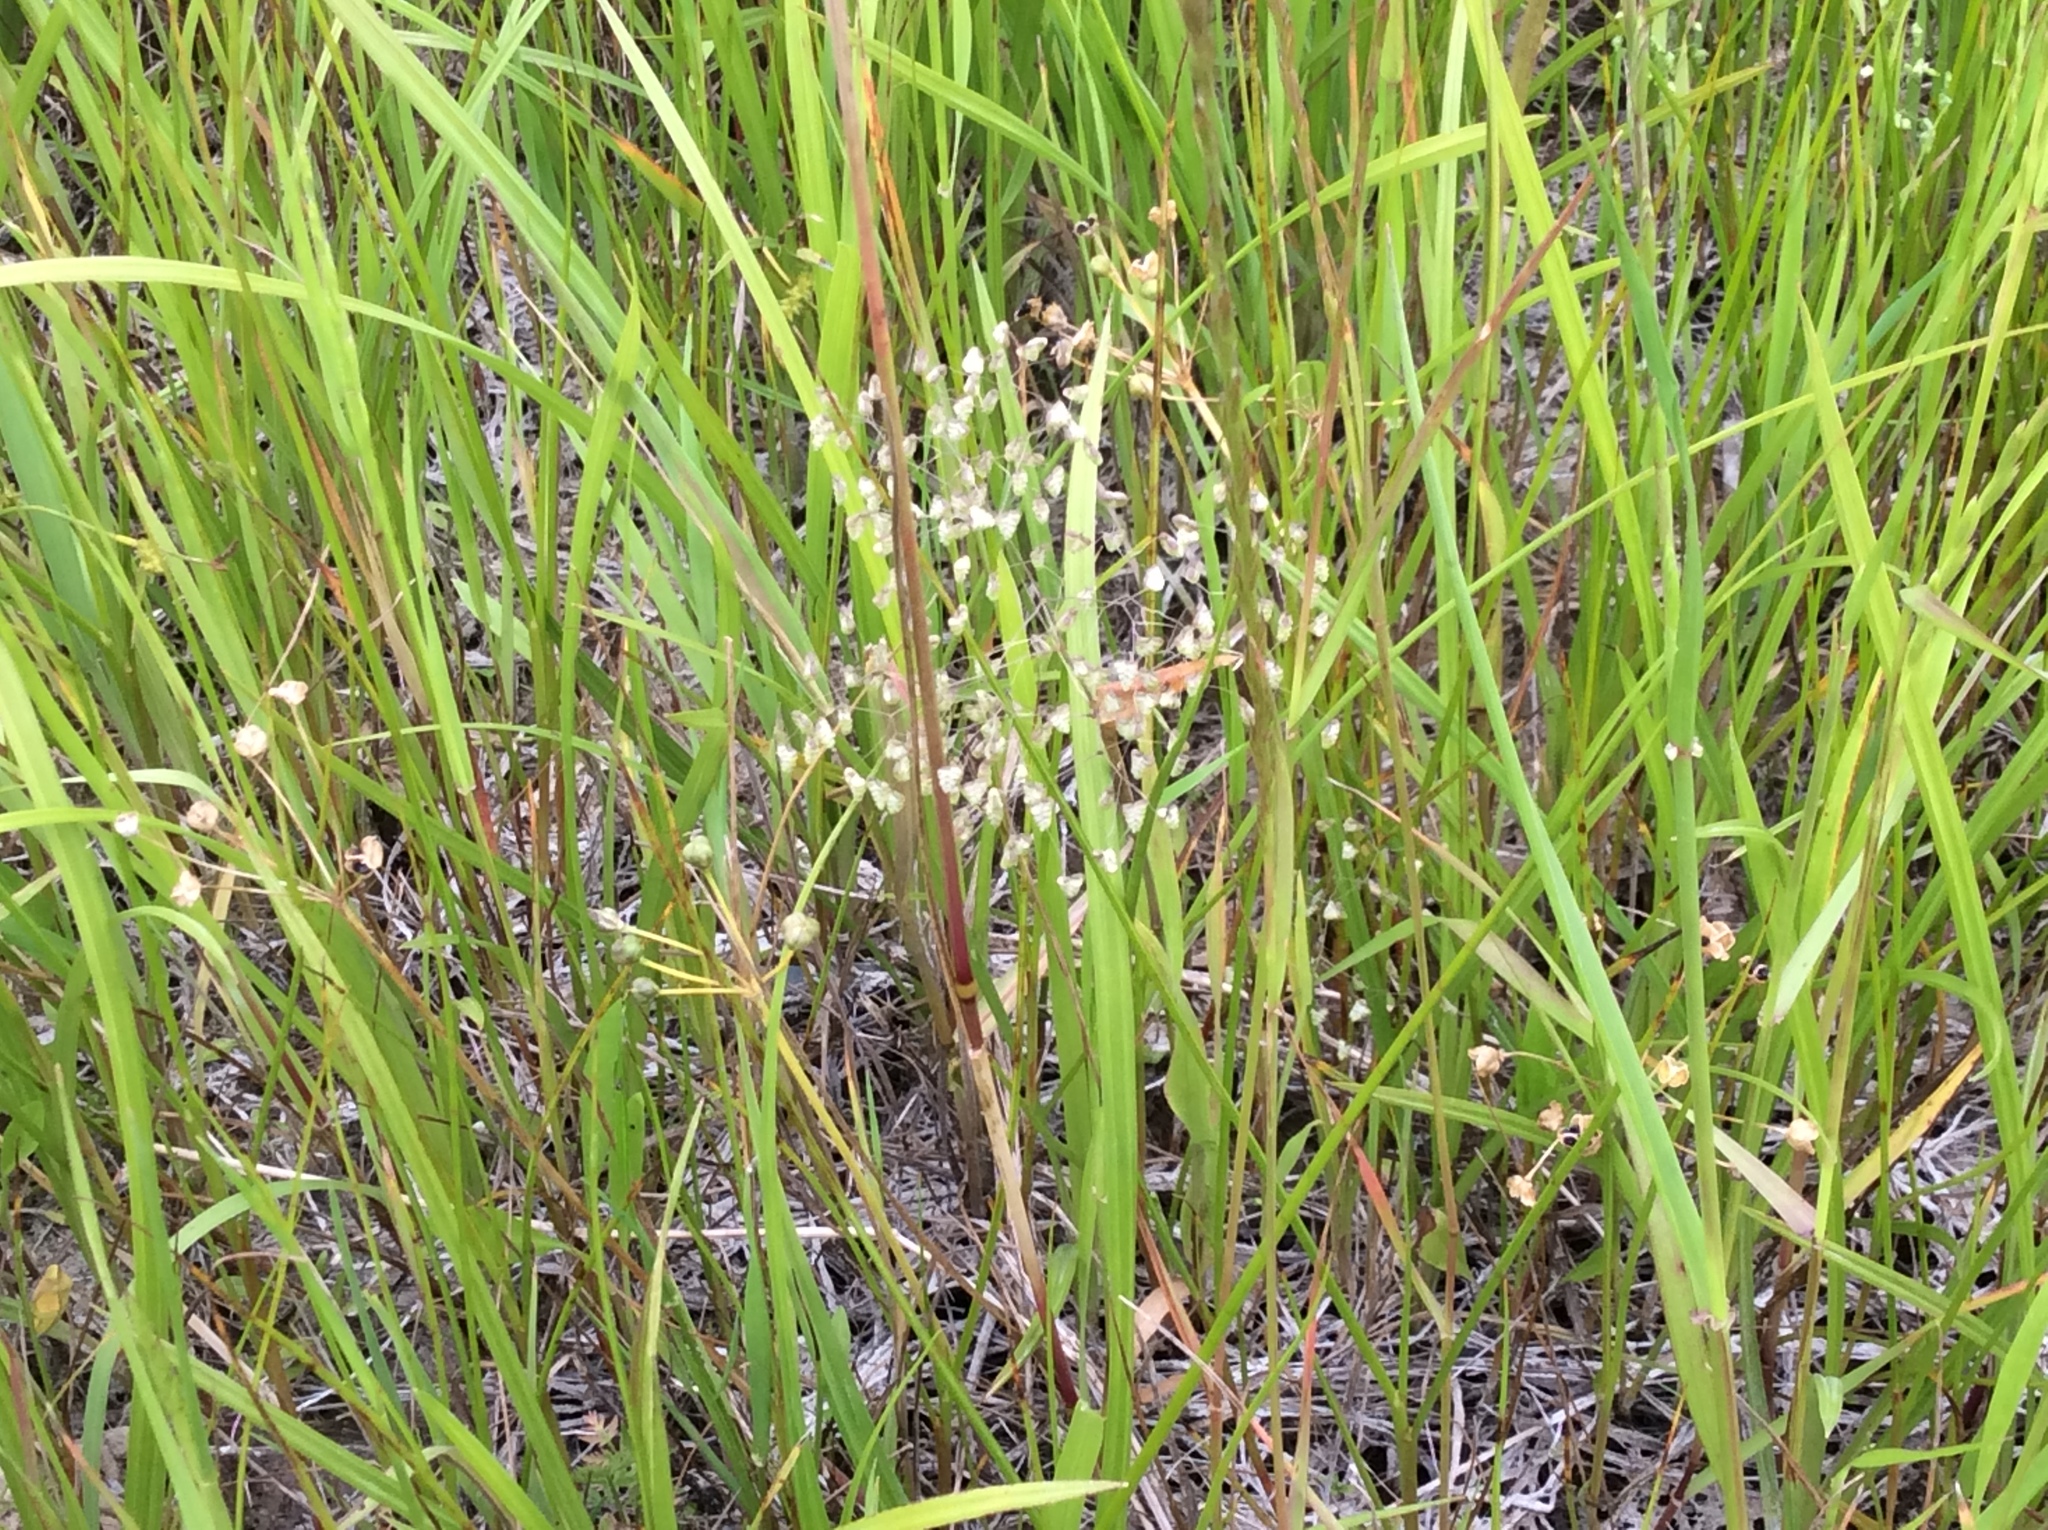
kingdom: Plantae
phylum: Tracheophyta
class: Liliopsida
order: Poales
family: Poaceae
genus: Briza
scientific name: Briza minor
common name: Lesser quaking-grass
